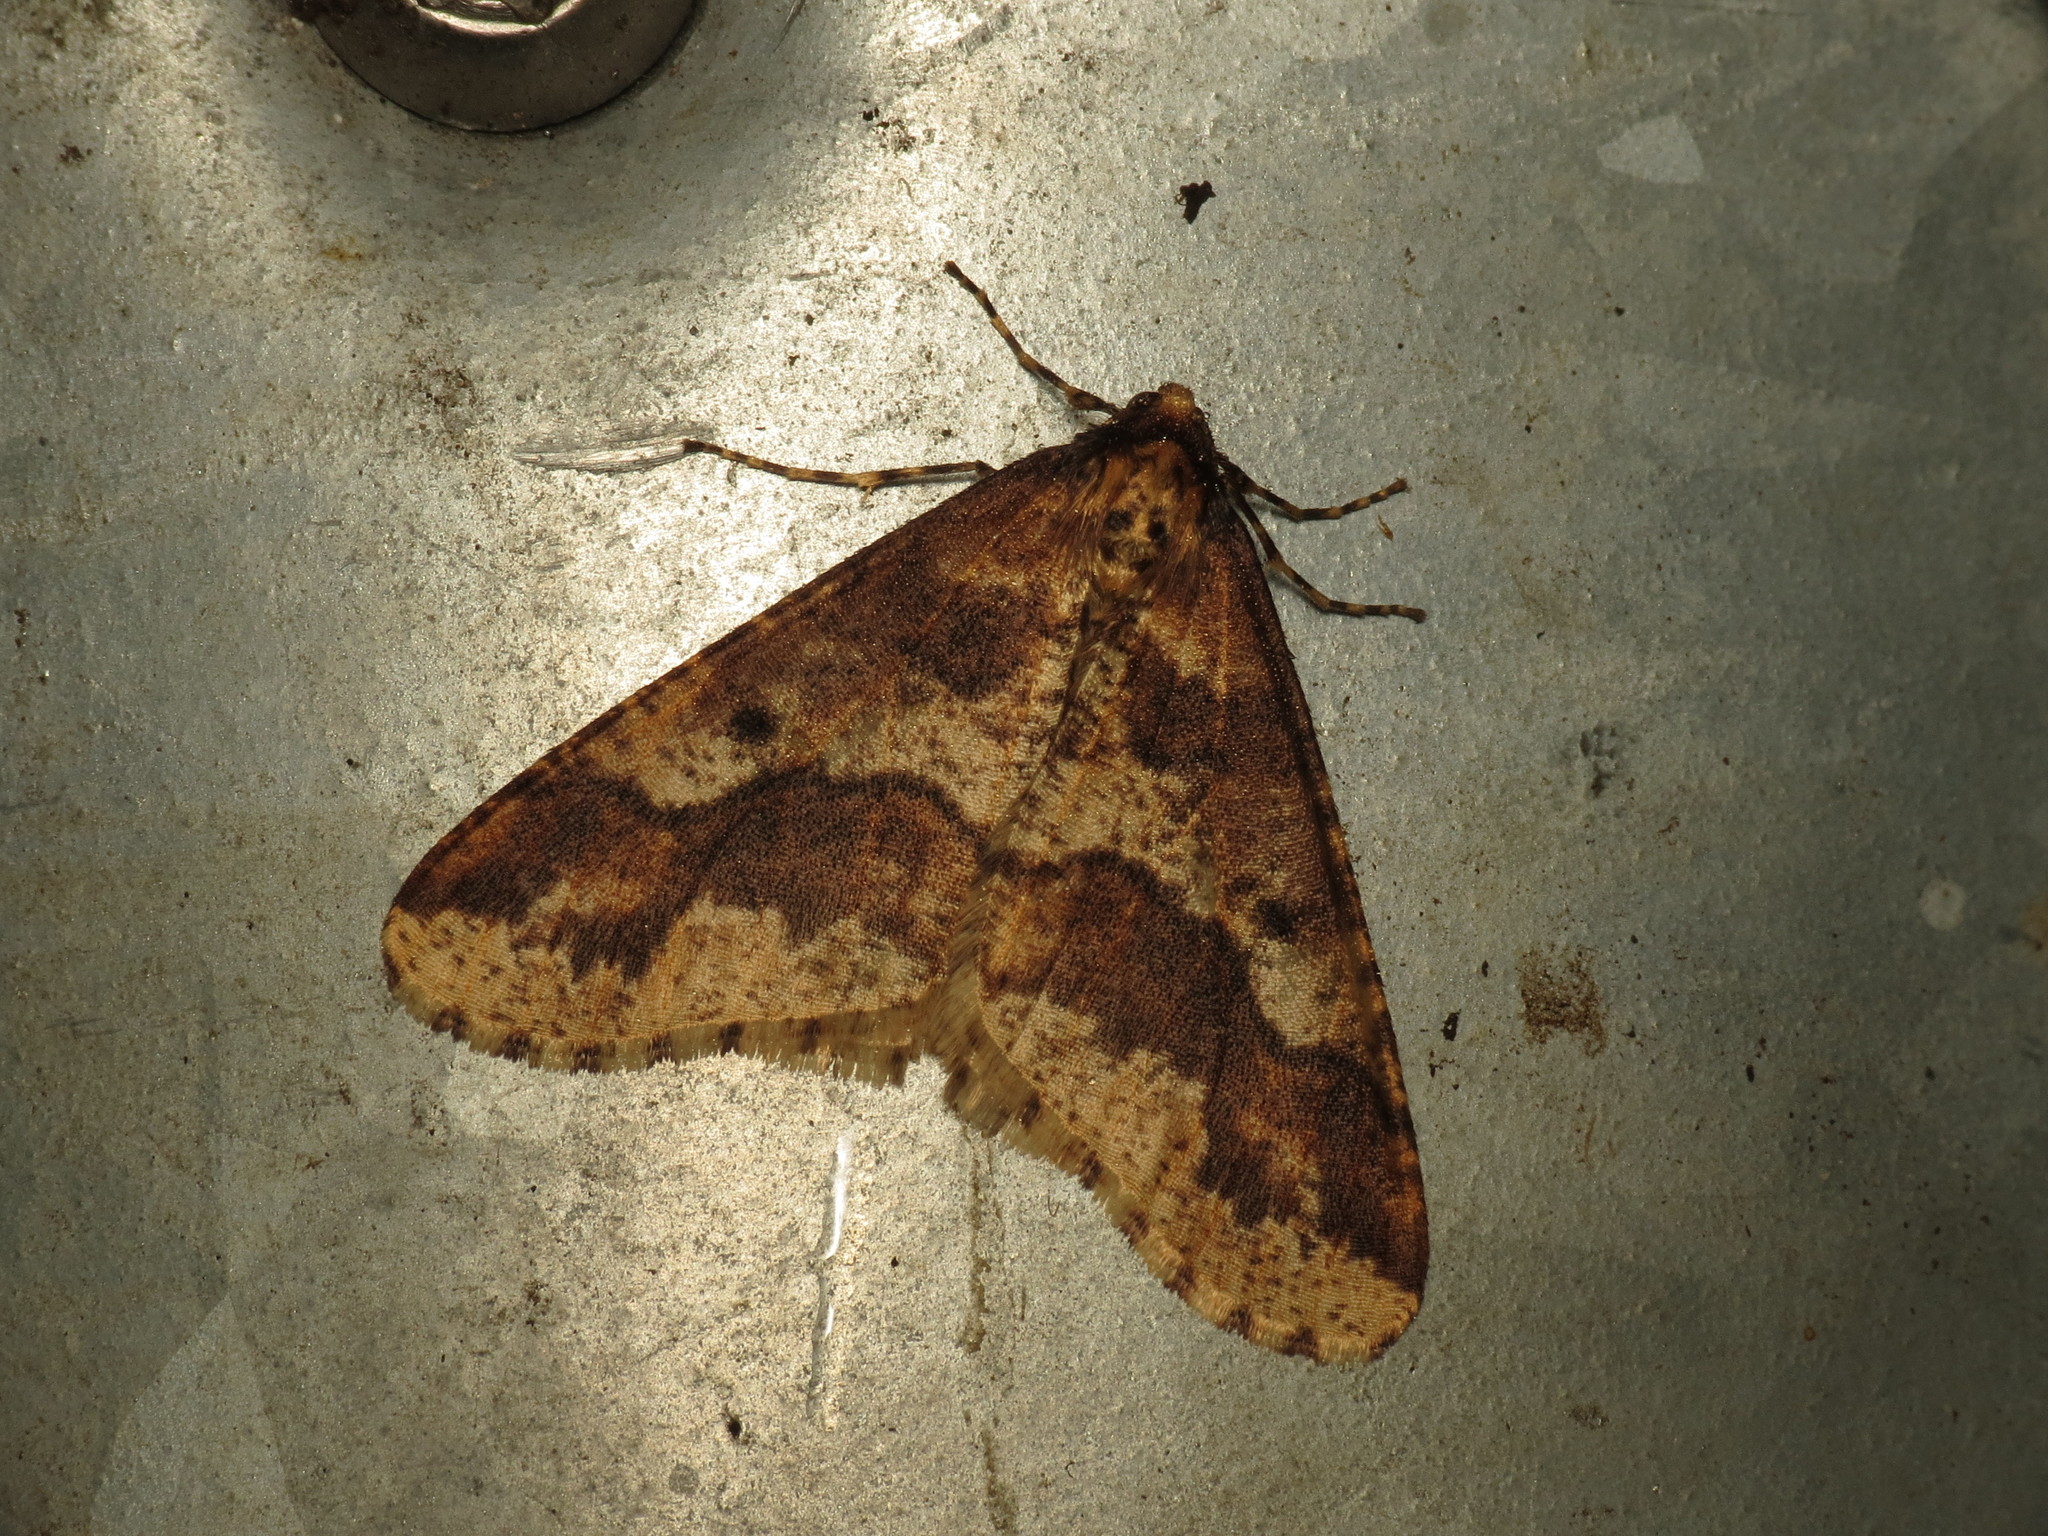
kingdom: Animalia
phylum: Arthropoda
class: Insecta
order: Lepidoptera
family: Geometridae
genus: Erannis
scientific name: Erannis defoliaria
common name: Mottled umber
